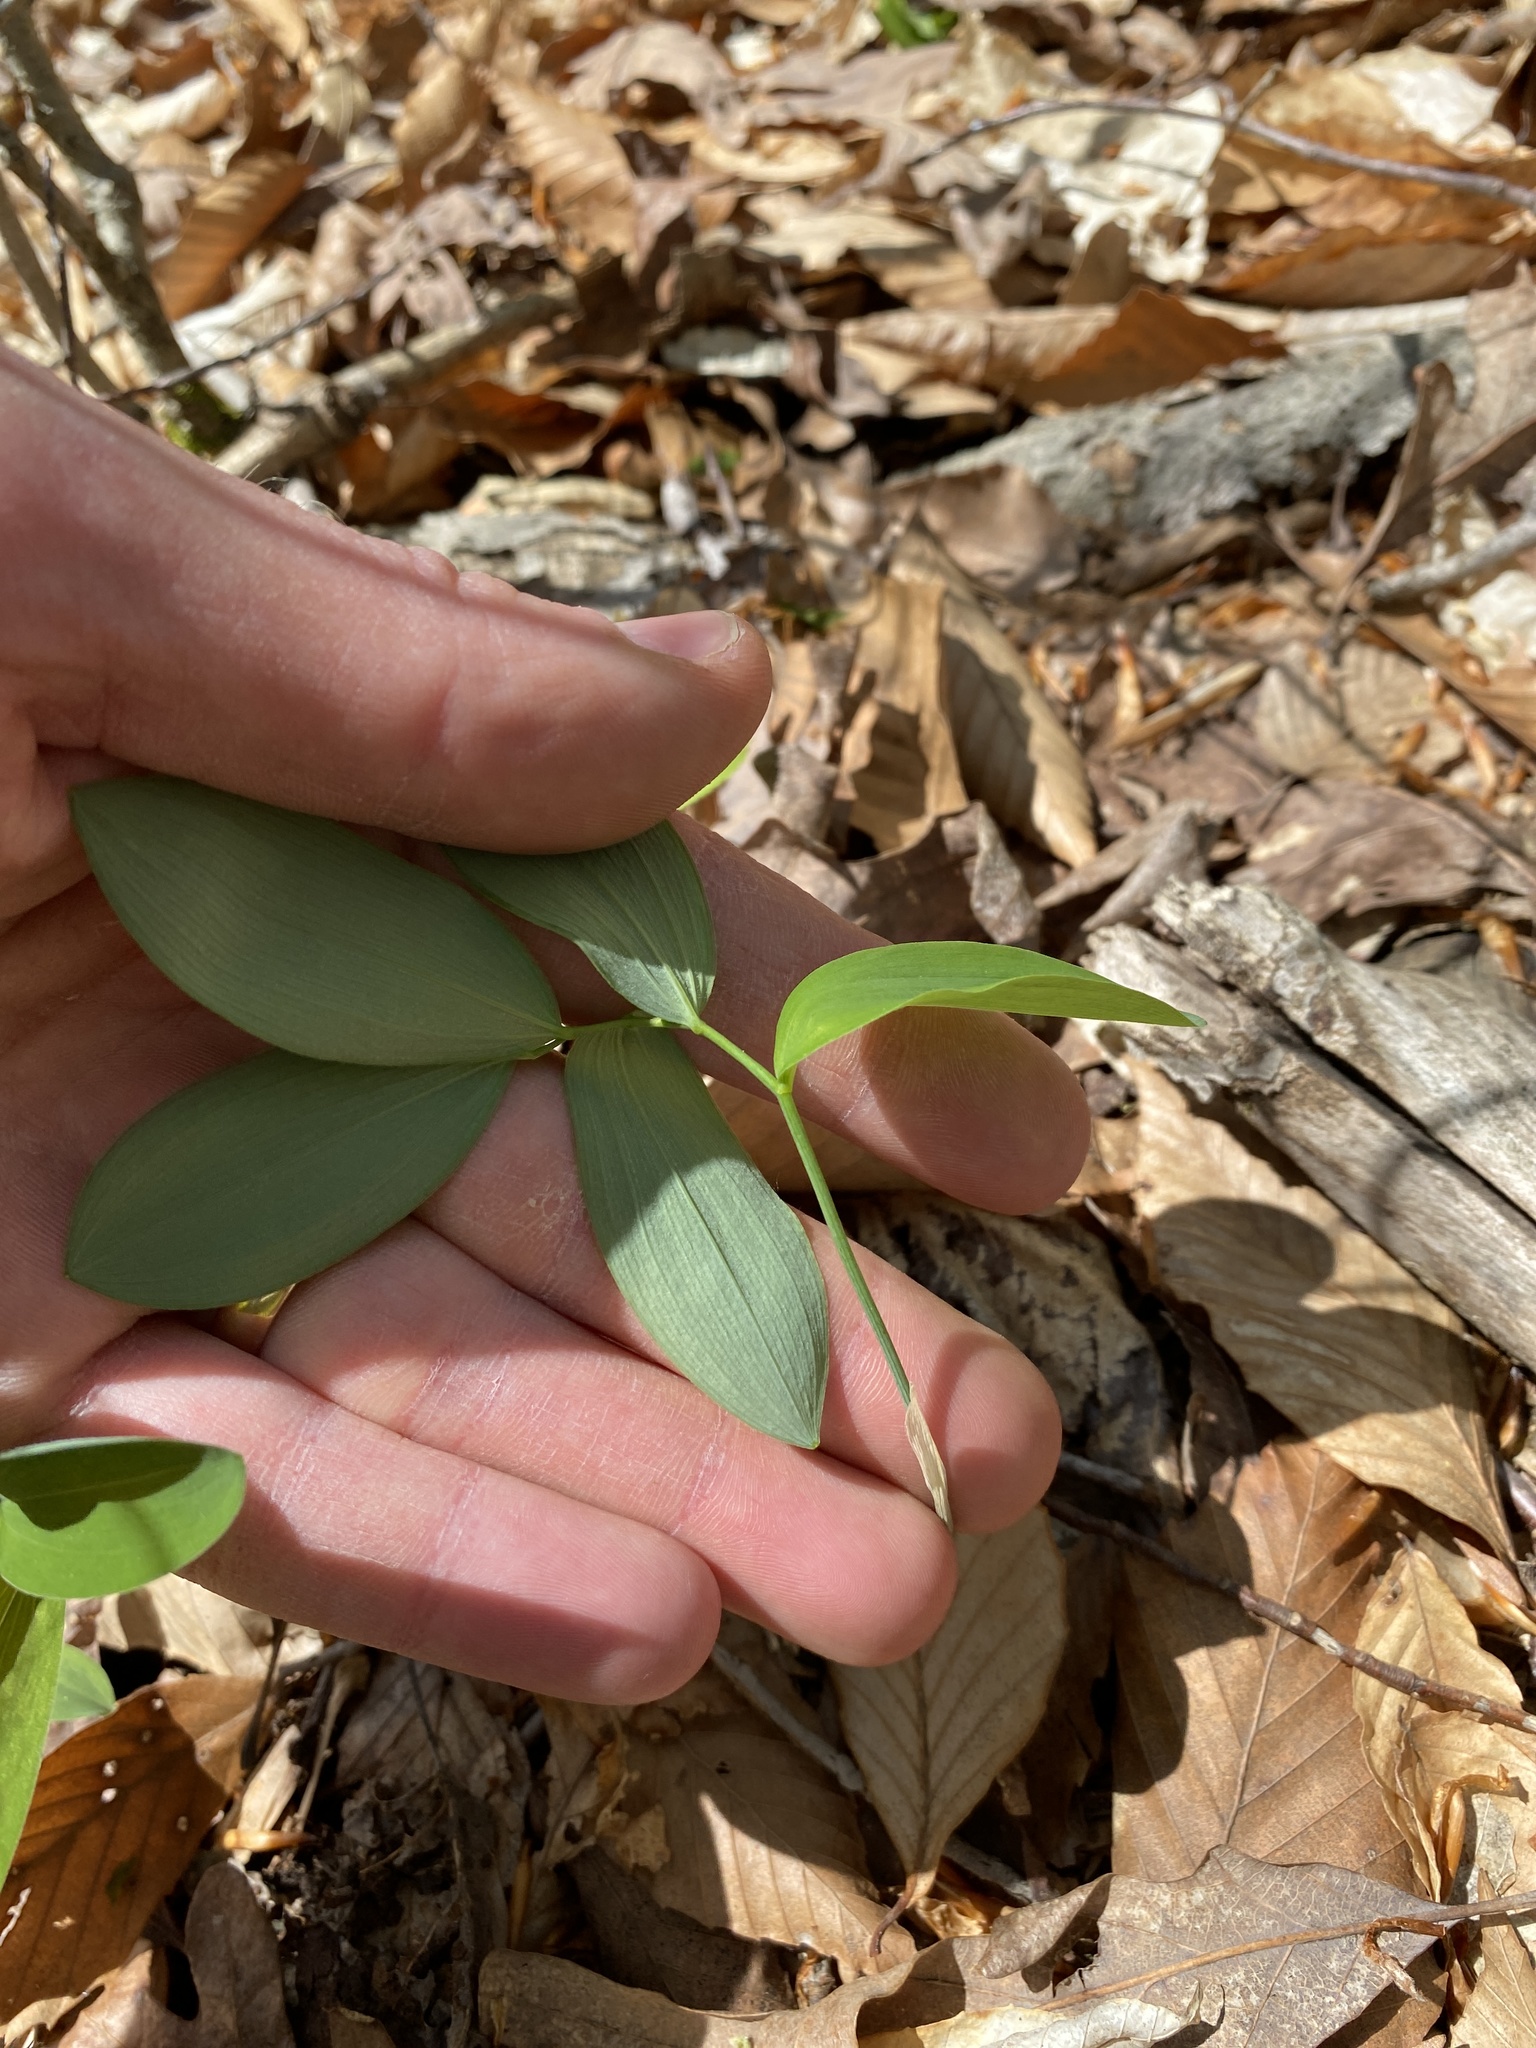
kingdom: Plantae
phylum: Tracheophyta
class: Liliopsida
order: Asparagales
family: Asparagaceae
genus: Polygonatum
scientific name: Polygonatum pubescens
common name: Downy solomon's seal
